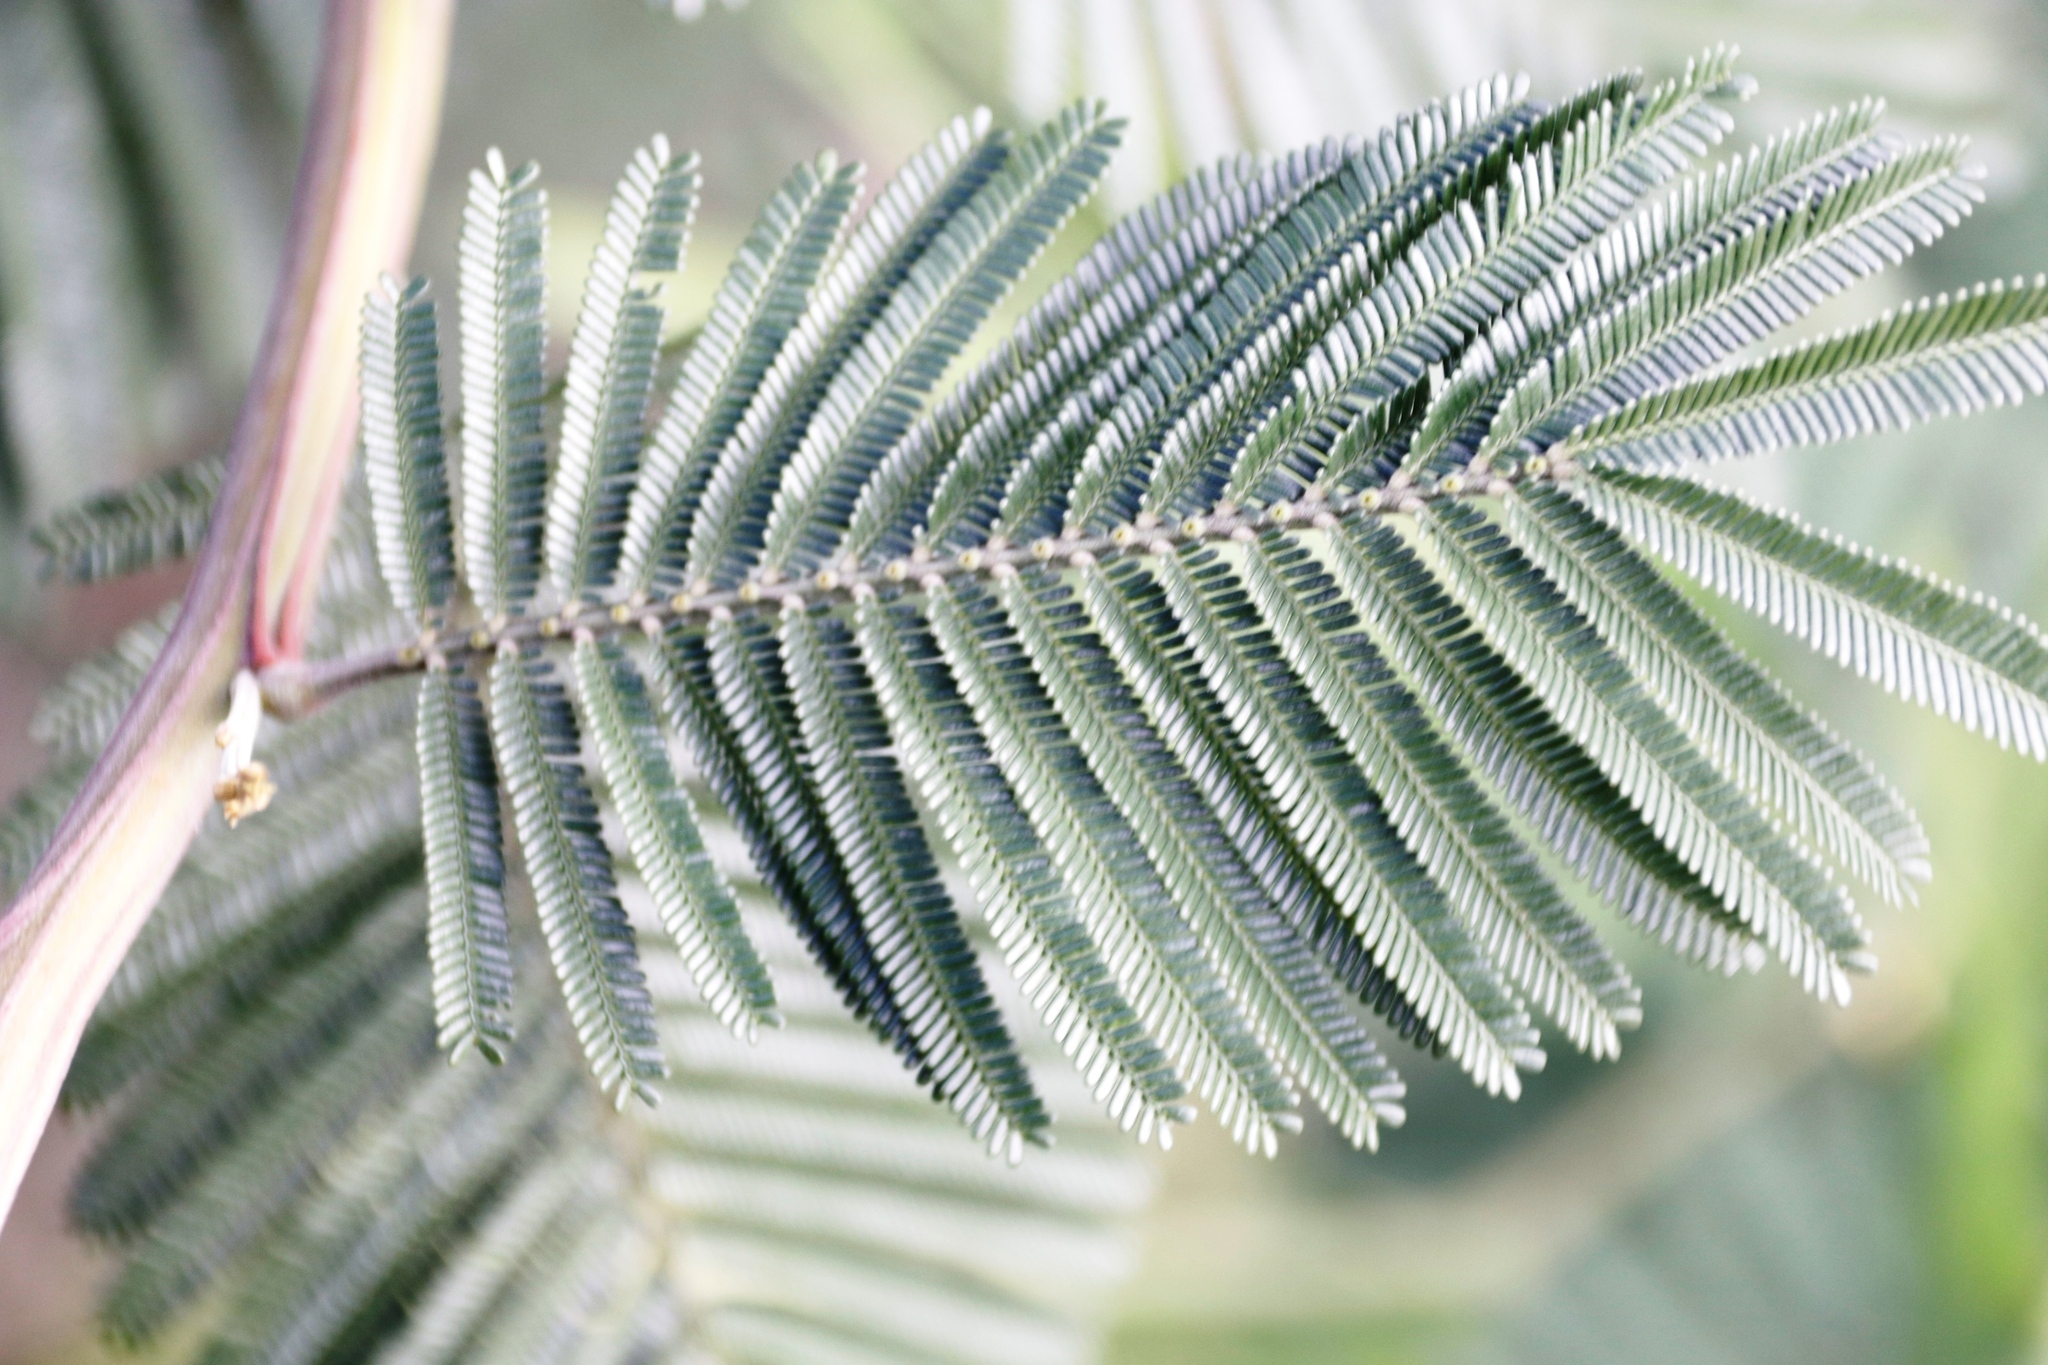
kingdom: Plantae
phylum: Tracheophyta
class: Magnoliopsida
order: Fabales
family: Fabaceae
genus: Acacia
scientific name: Acacia mearnsii
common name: Black wattle
